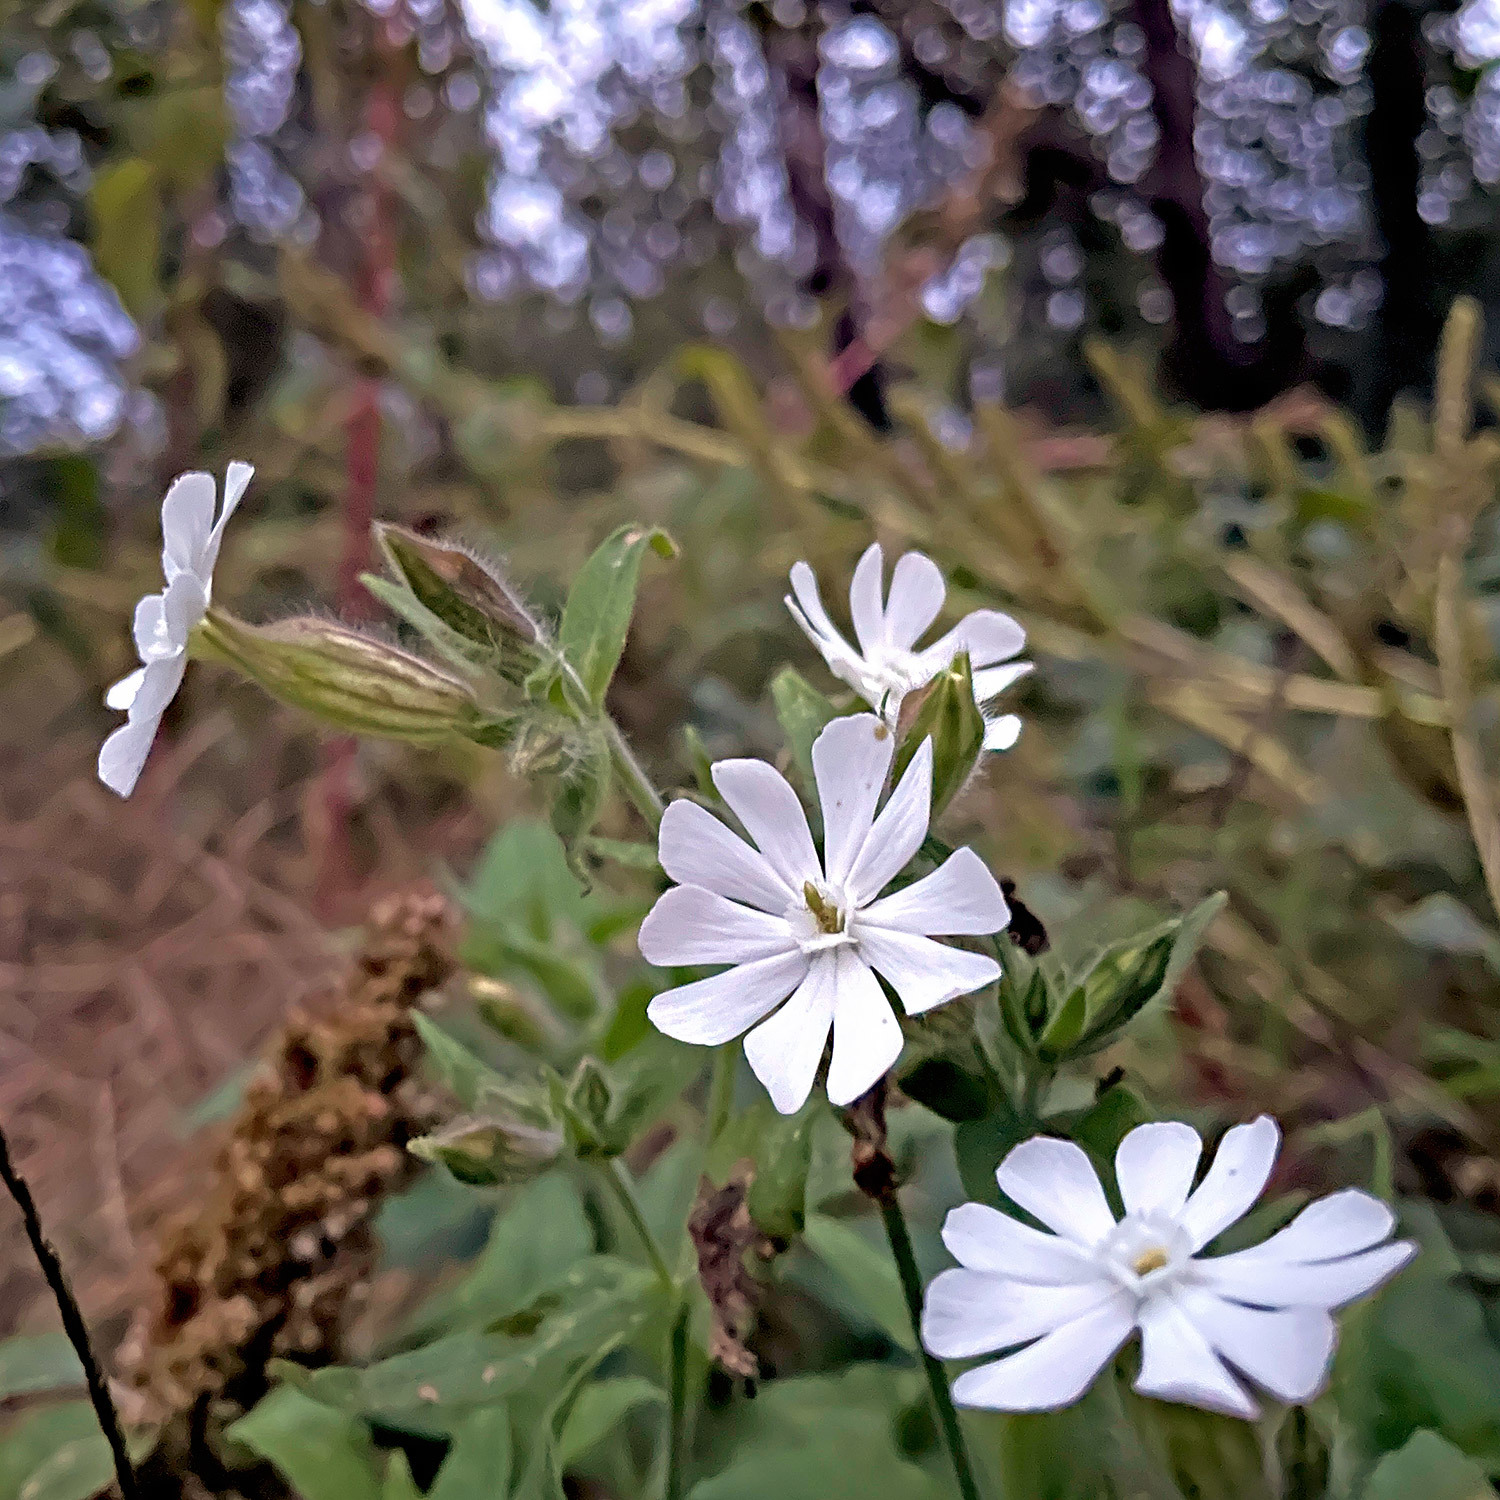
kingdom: Plantae
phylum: Tracheophyta
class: Magnoliopsida
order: Caryophyllales
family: Caryophyllaceae
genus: Silene
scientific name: Silene latifolia
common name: White campion
